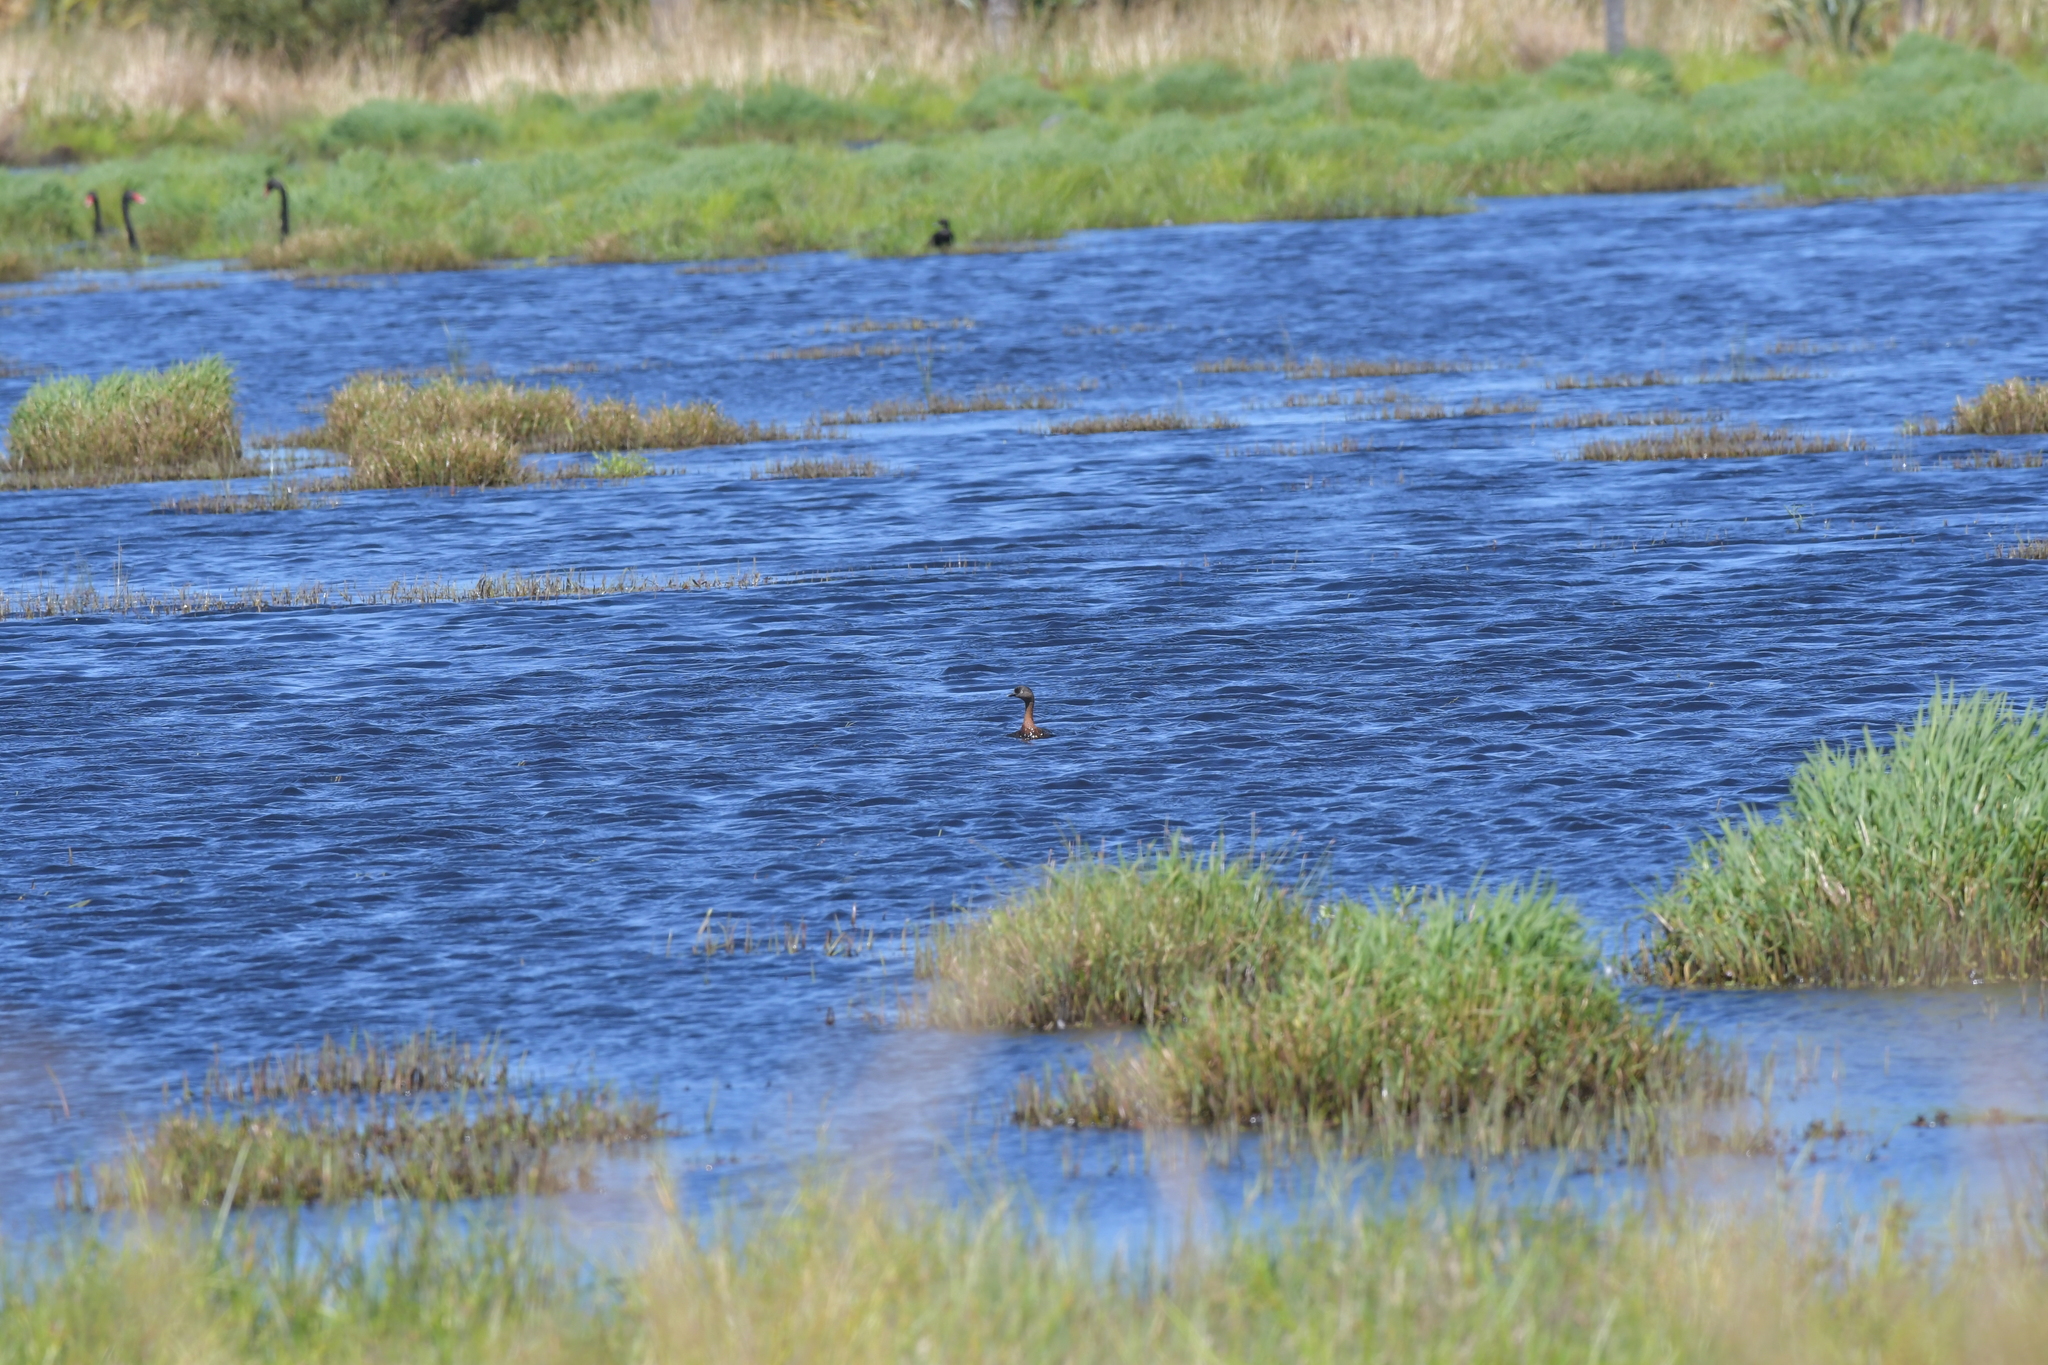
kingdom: Animalia
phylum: Chordata
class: Aves
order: Podicipediformes
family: Podicipedidae
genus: Poliocephalus
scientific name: Poliocephalus rufopectus
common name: New zealand grebe
